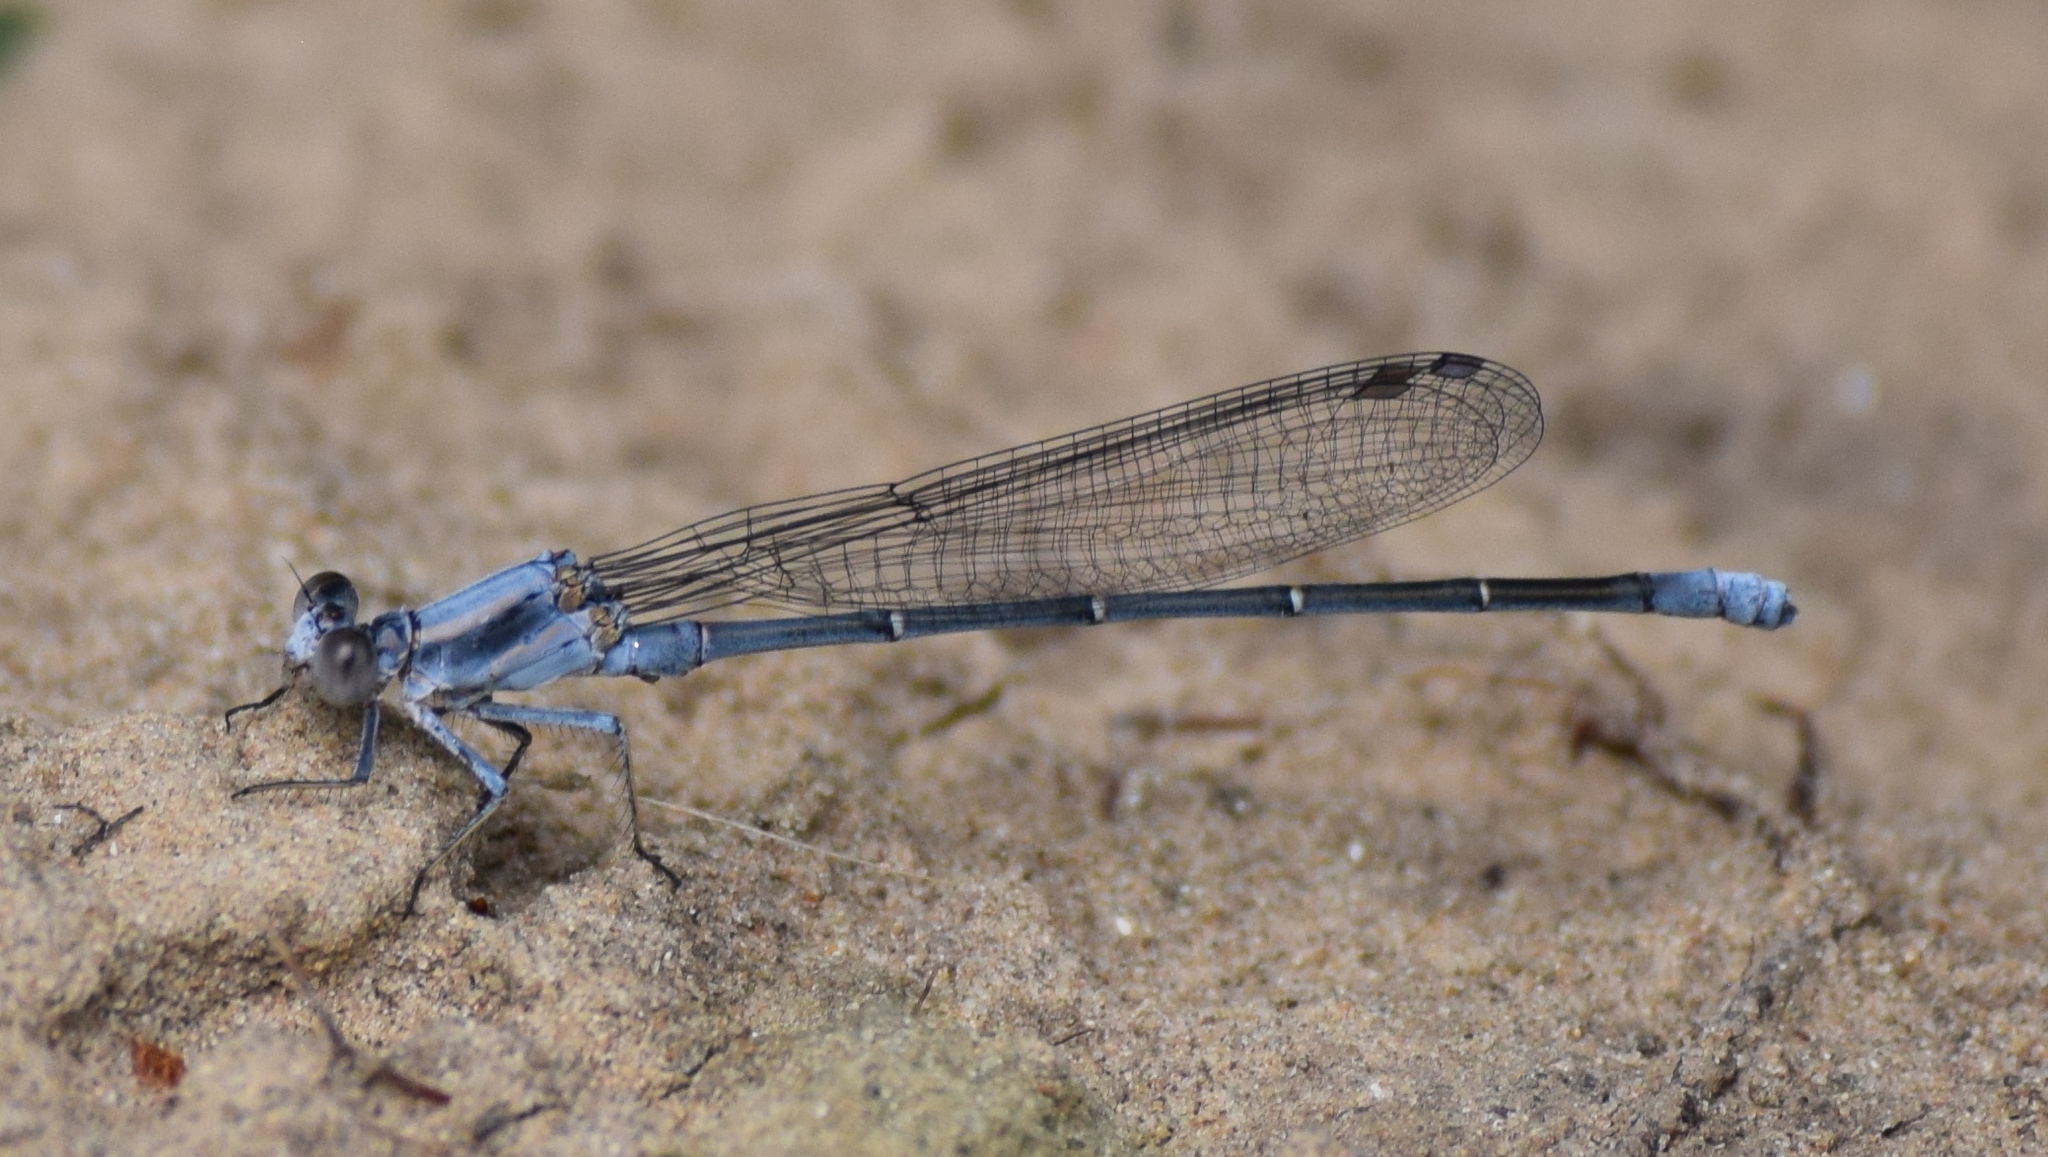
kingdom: Animalia
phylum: Arthropoda
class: Insecta
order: Odonata
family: Coenagrionidae
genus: Argia
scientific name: Argia moesta
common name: Powdered dancer
